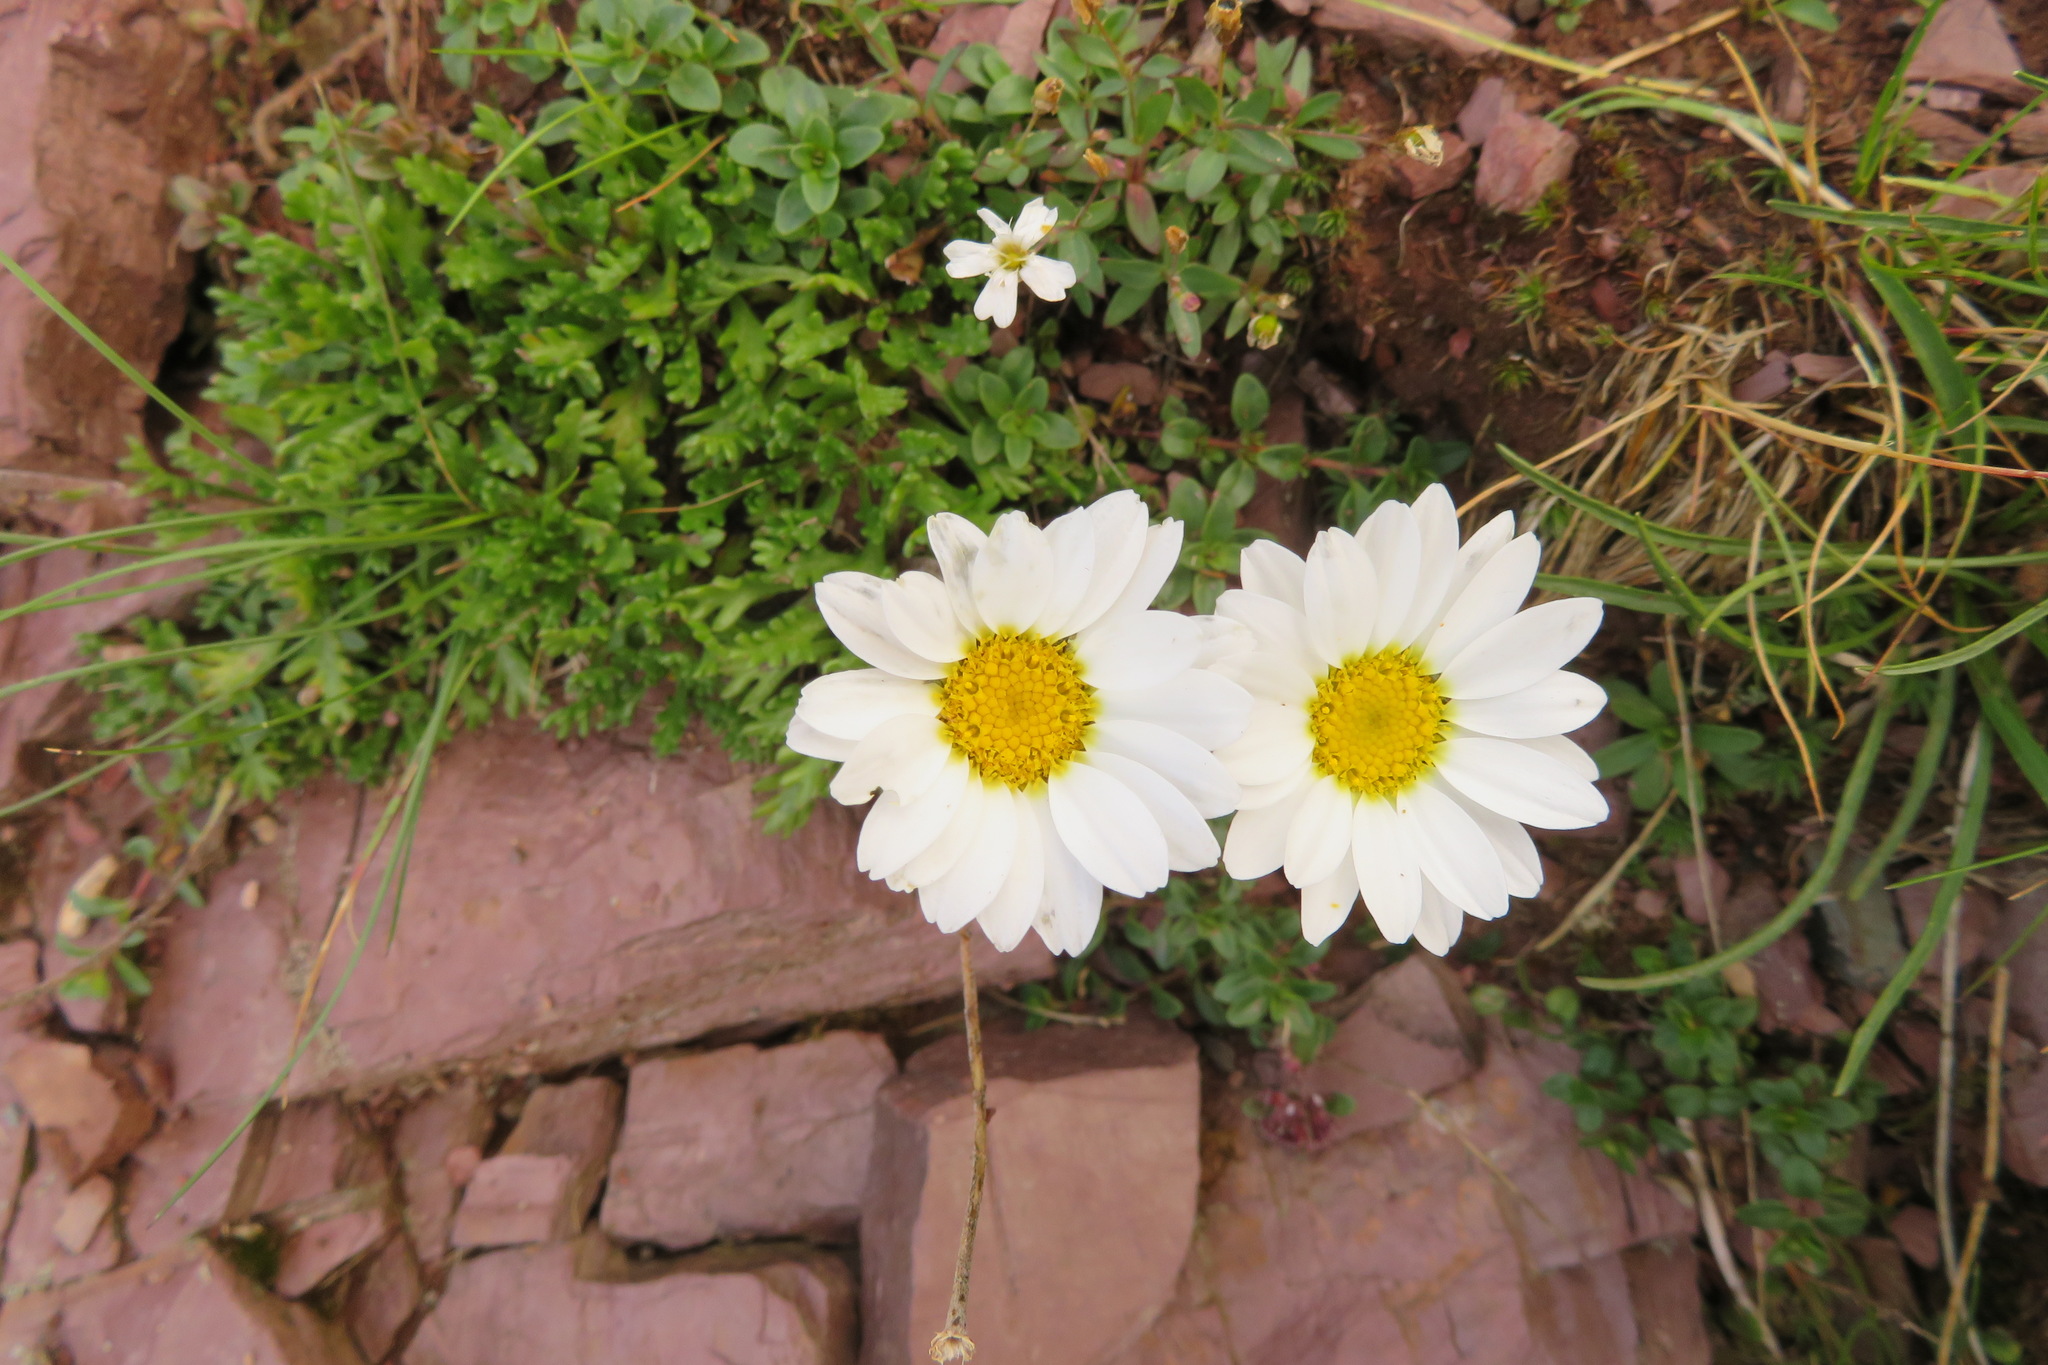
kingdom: Plantae
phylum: Tracheophyta
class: Magnoliopsida
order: Asterales
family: Asteraceae
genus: Leucanthemopsis
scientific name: Leucanthemopsis alpina
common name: Alpine moon daisy
